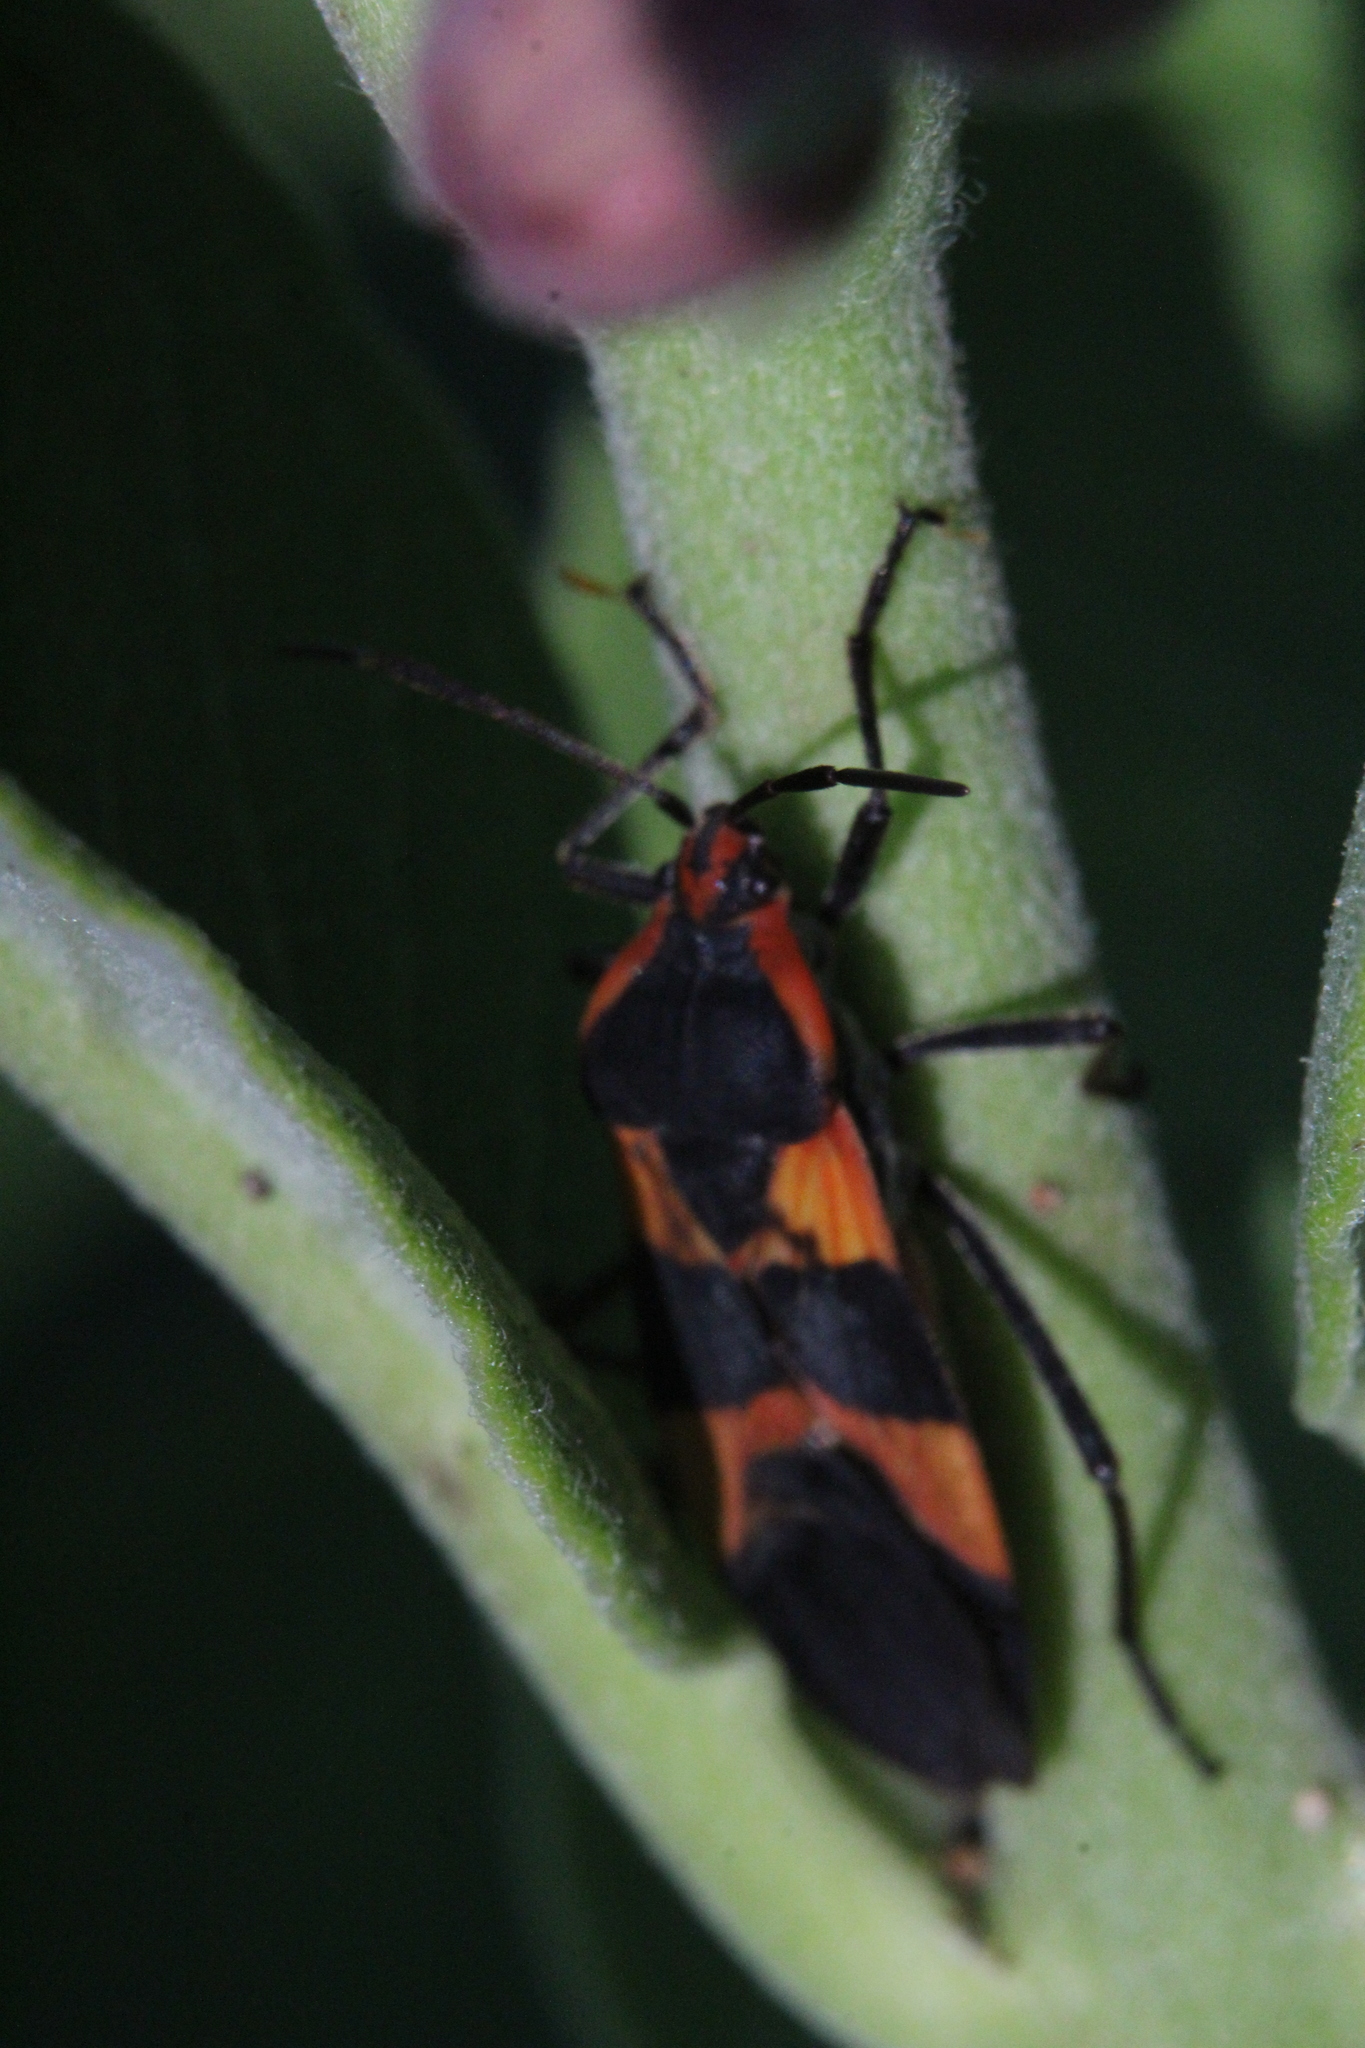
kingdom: Animalia
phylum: Arthropoda
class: Insecta
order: Hemiptera
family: Lygaeidae
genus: Oncopeltus
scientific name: Oncopeltus fasciatus
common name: Large milkweed bug
